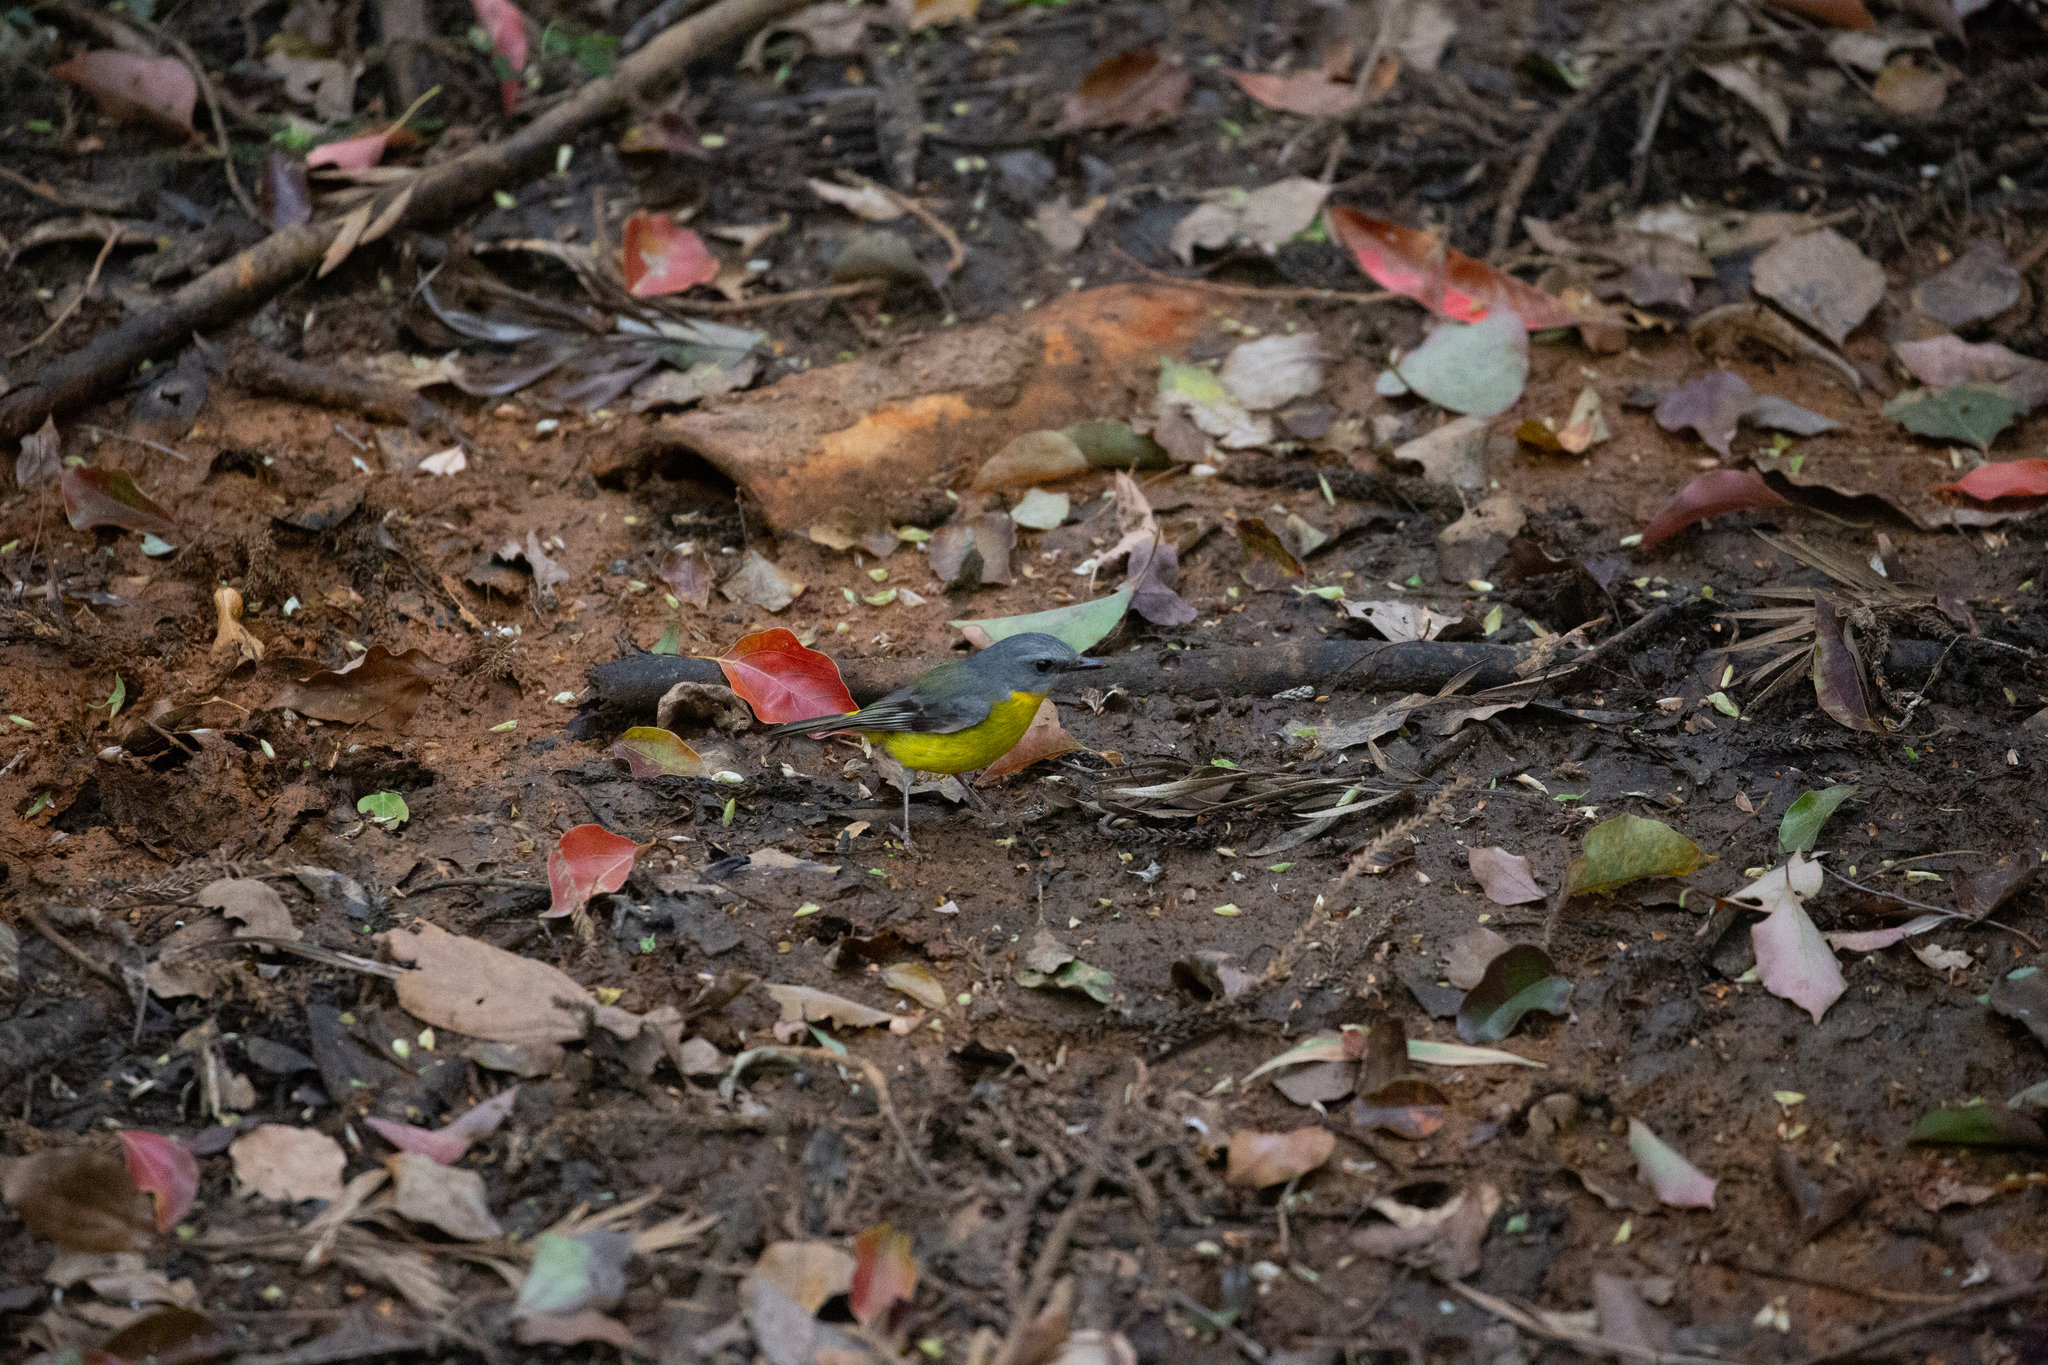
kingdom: Animalia
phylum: Chordata
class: Aves
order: Passeriformes
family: Petroicidae
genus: Eopsaltria
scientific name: Eopsaltria australis
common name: Eastern yellow robin
